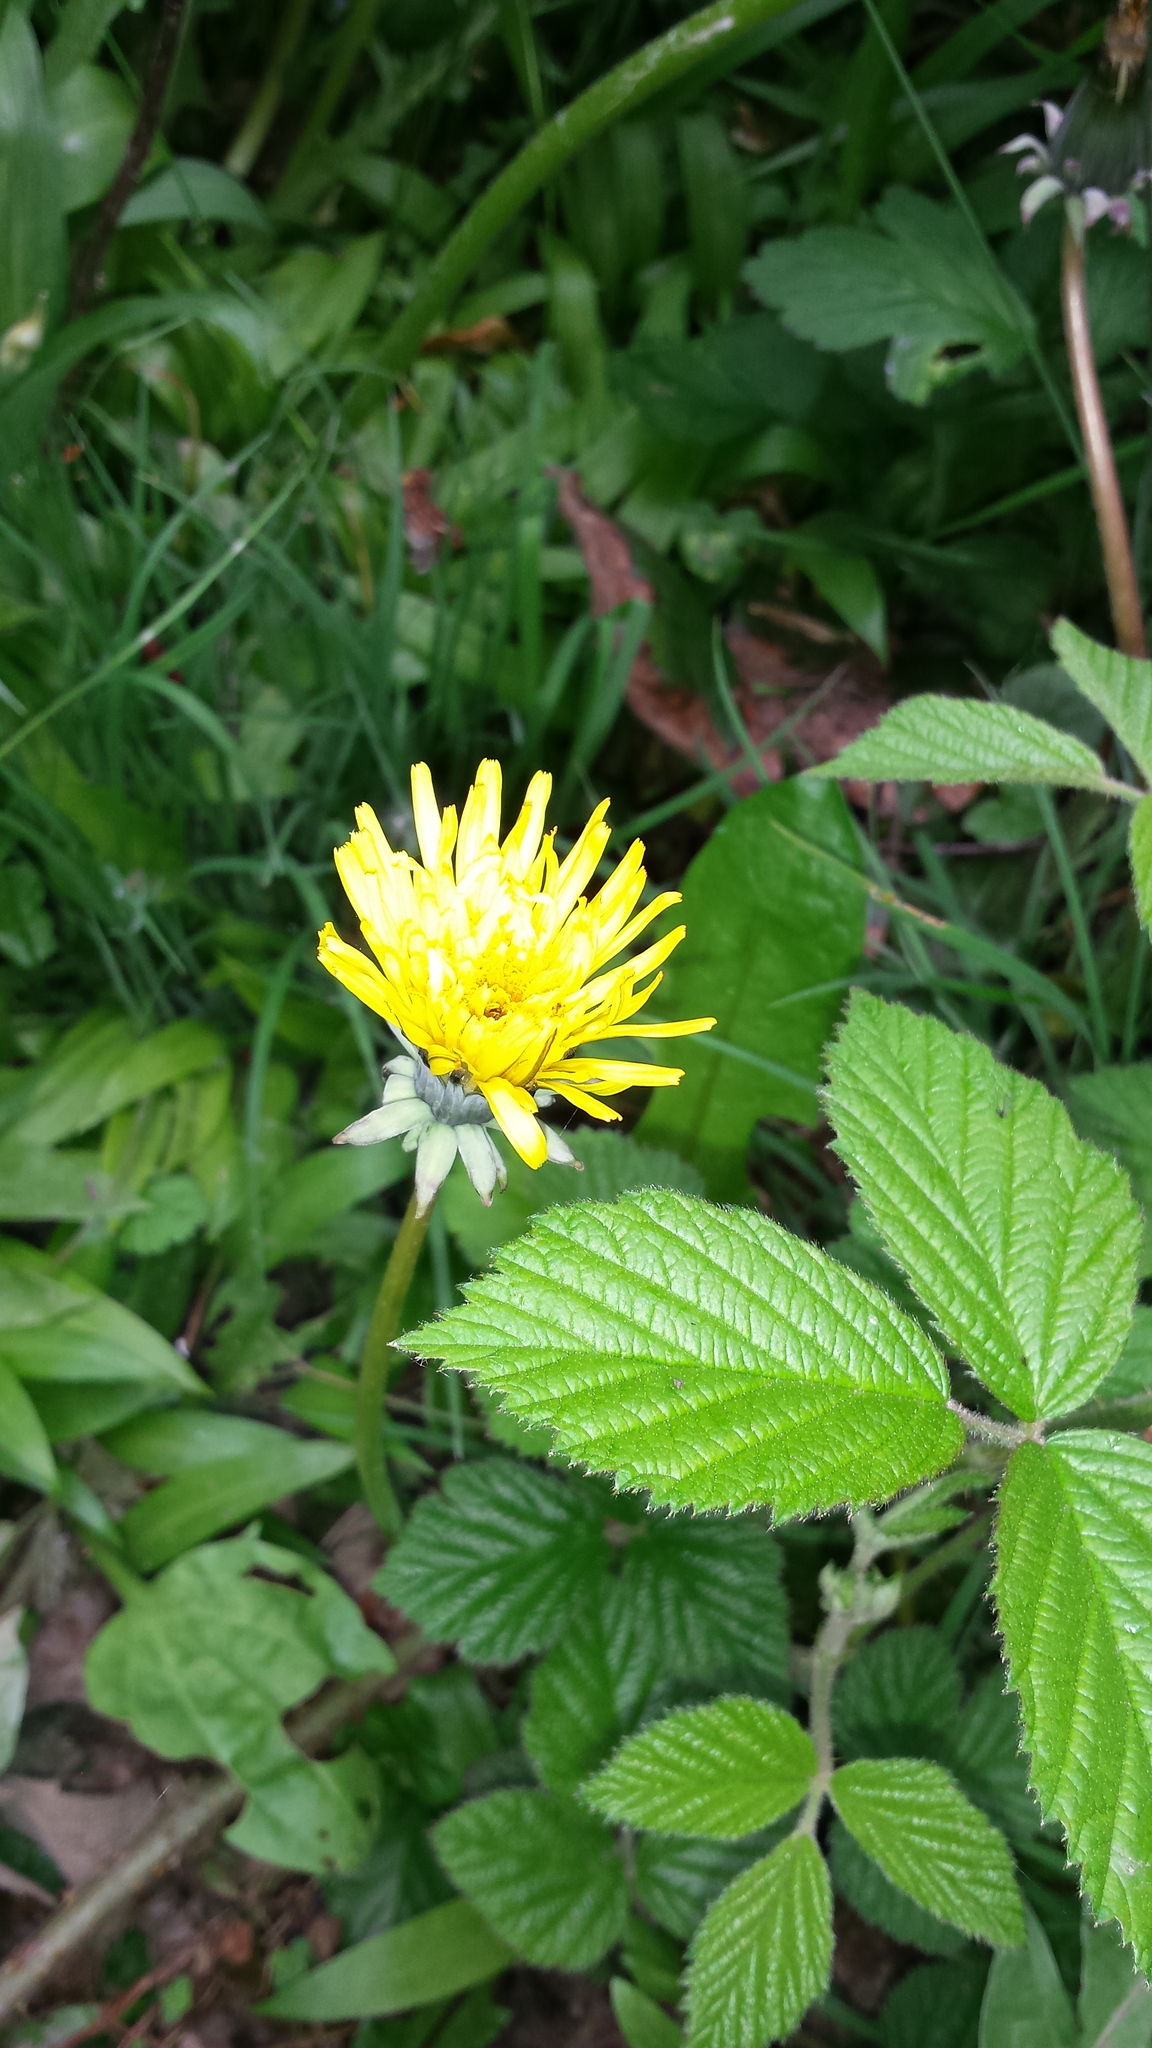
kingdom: Plantae
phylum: Tracheophyta
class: Magnoliopsida
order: Asterales
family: Asteraceae
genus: Taraxacum
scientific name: Taraxacum officinale
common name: Common dandelion
